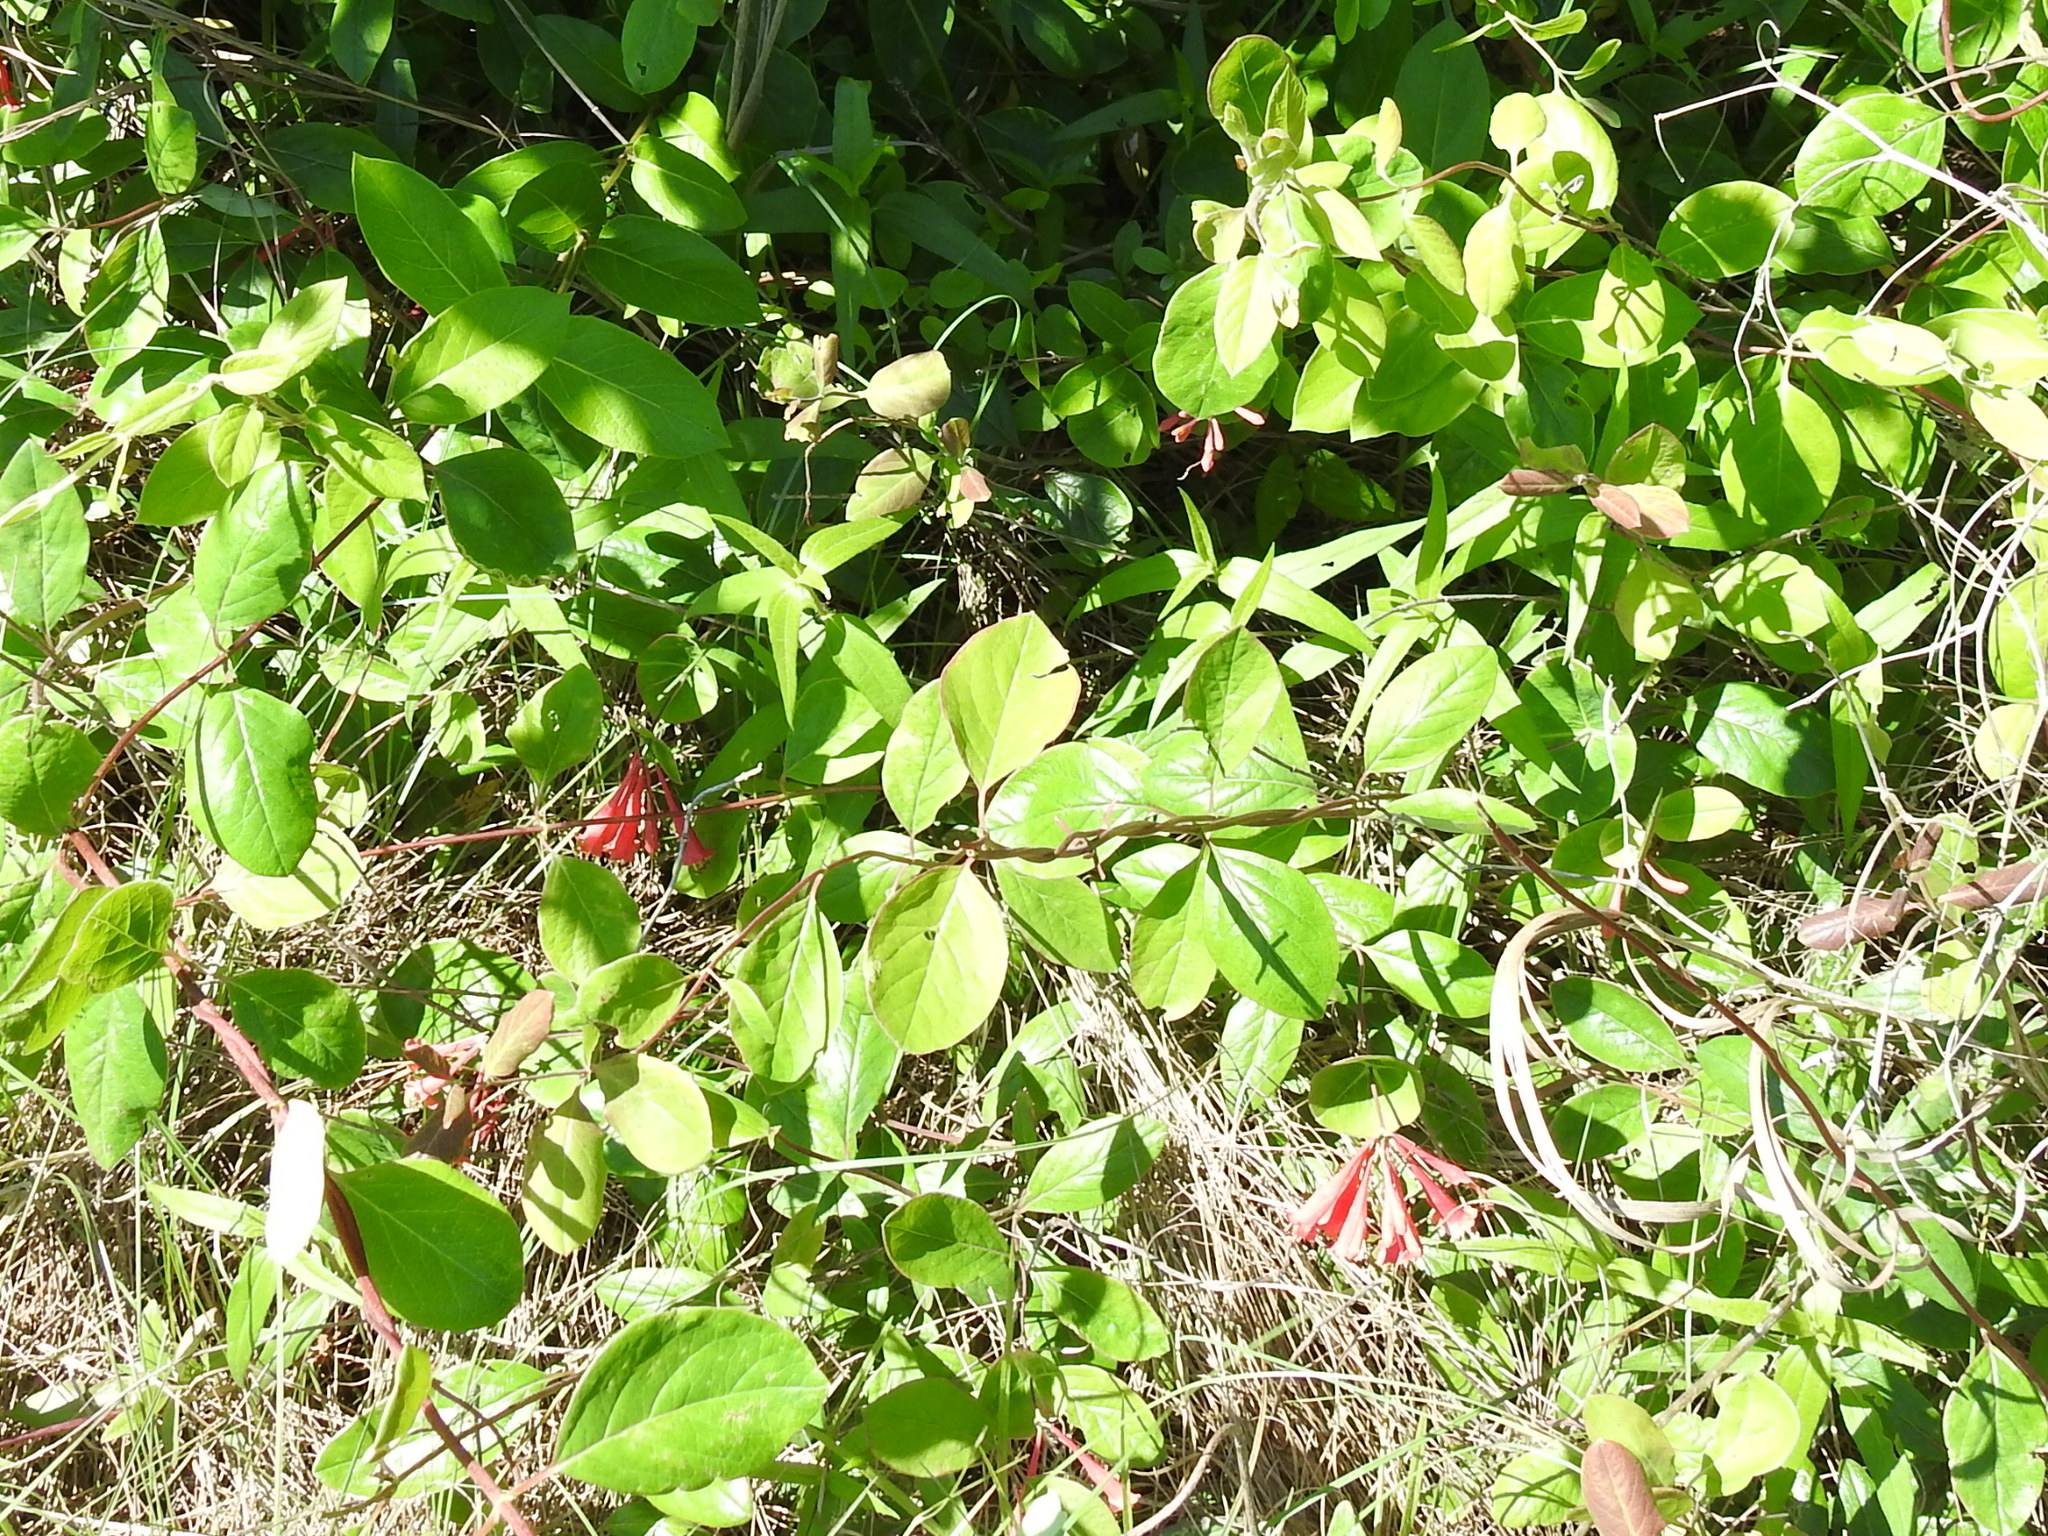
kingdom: Plantae
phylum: Tracheophyta
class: Magnoliopsida
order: Dipsacales
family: Caprifoliaceae
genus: Lonicera
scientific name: Lonicera sempervirens
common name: Coral honeysuckle
